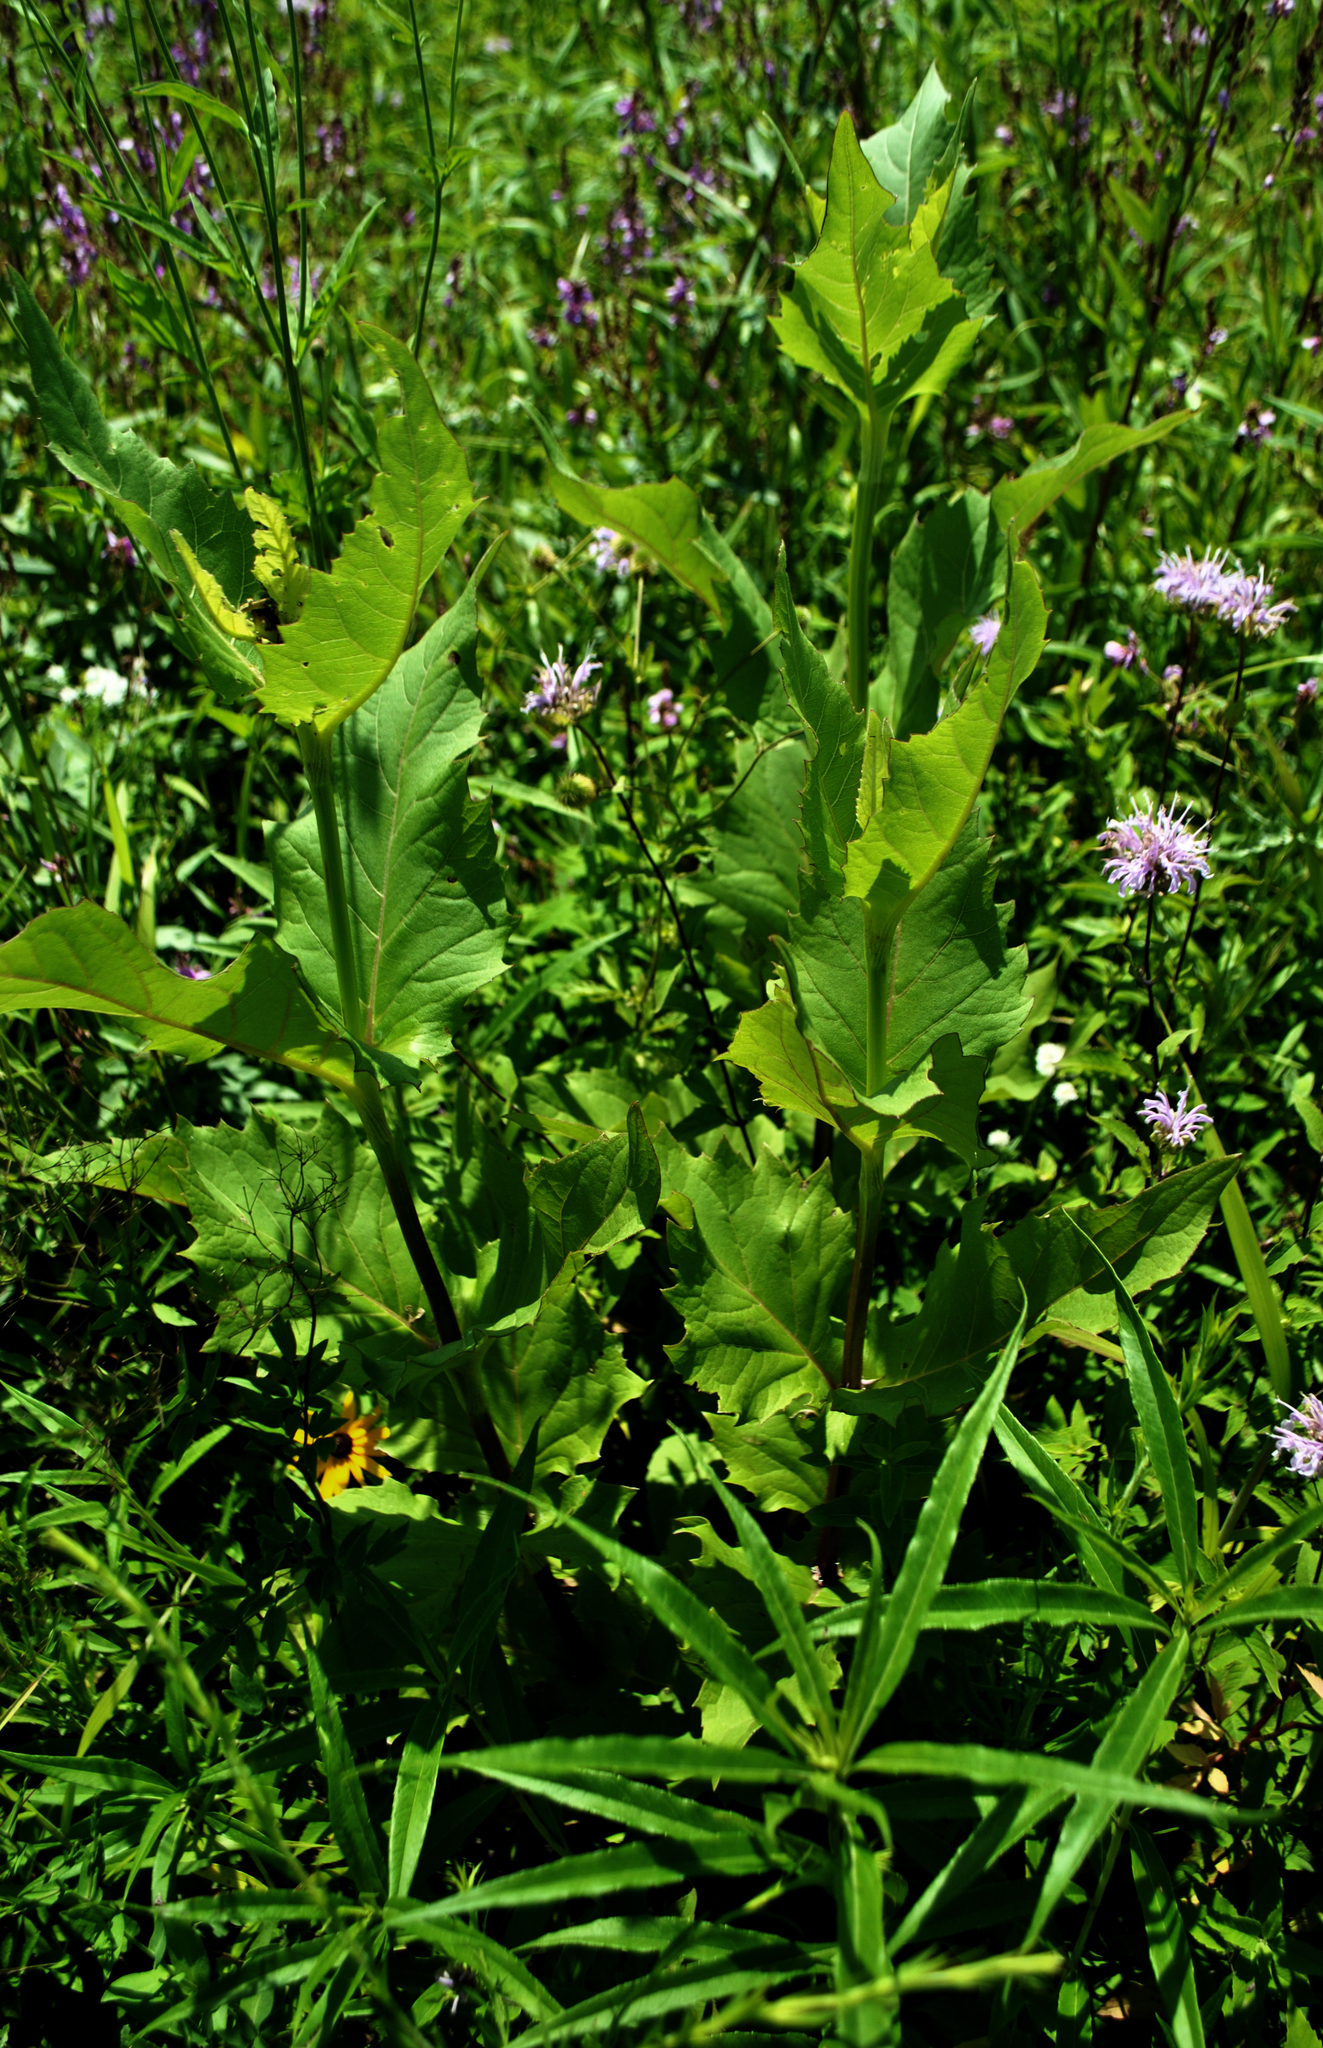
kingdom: Plantae
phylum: Tracheophyta
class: Magnoliopsida
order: Asterales
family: Asteraceae
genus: Silphium
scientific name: Silphium perfoliatum
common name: Cup-plant
